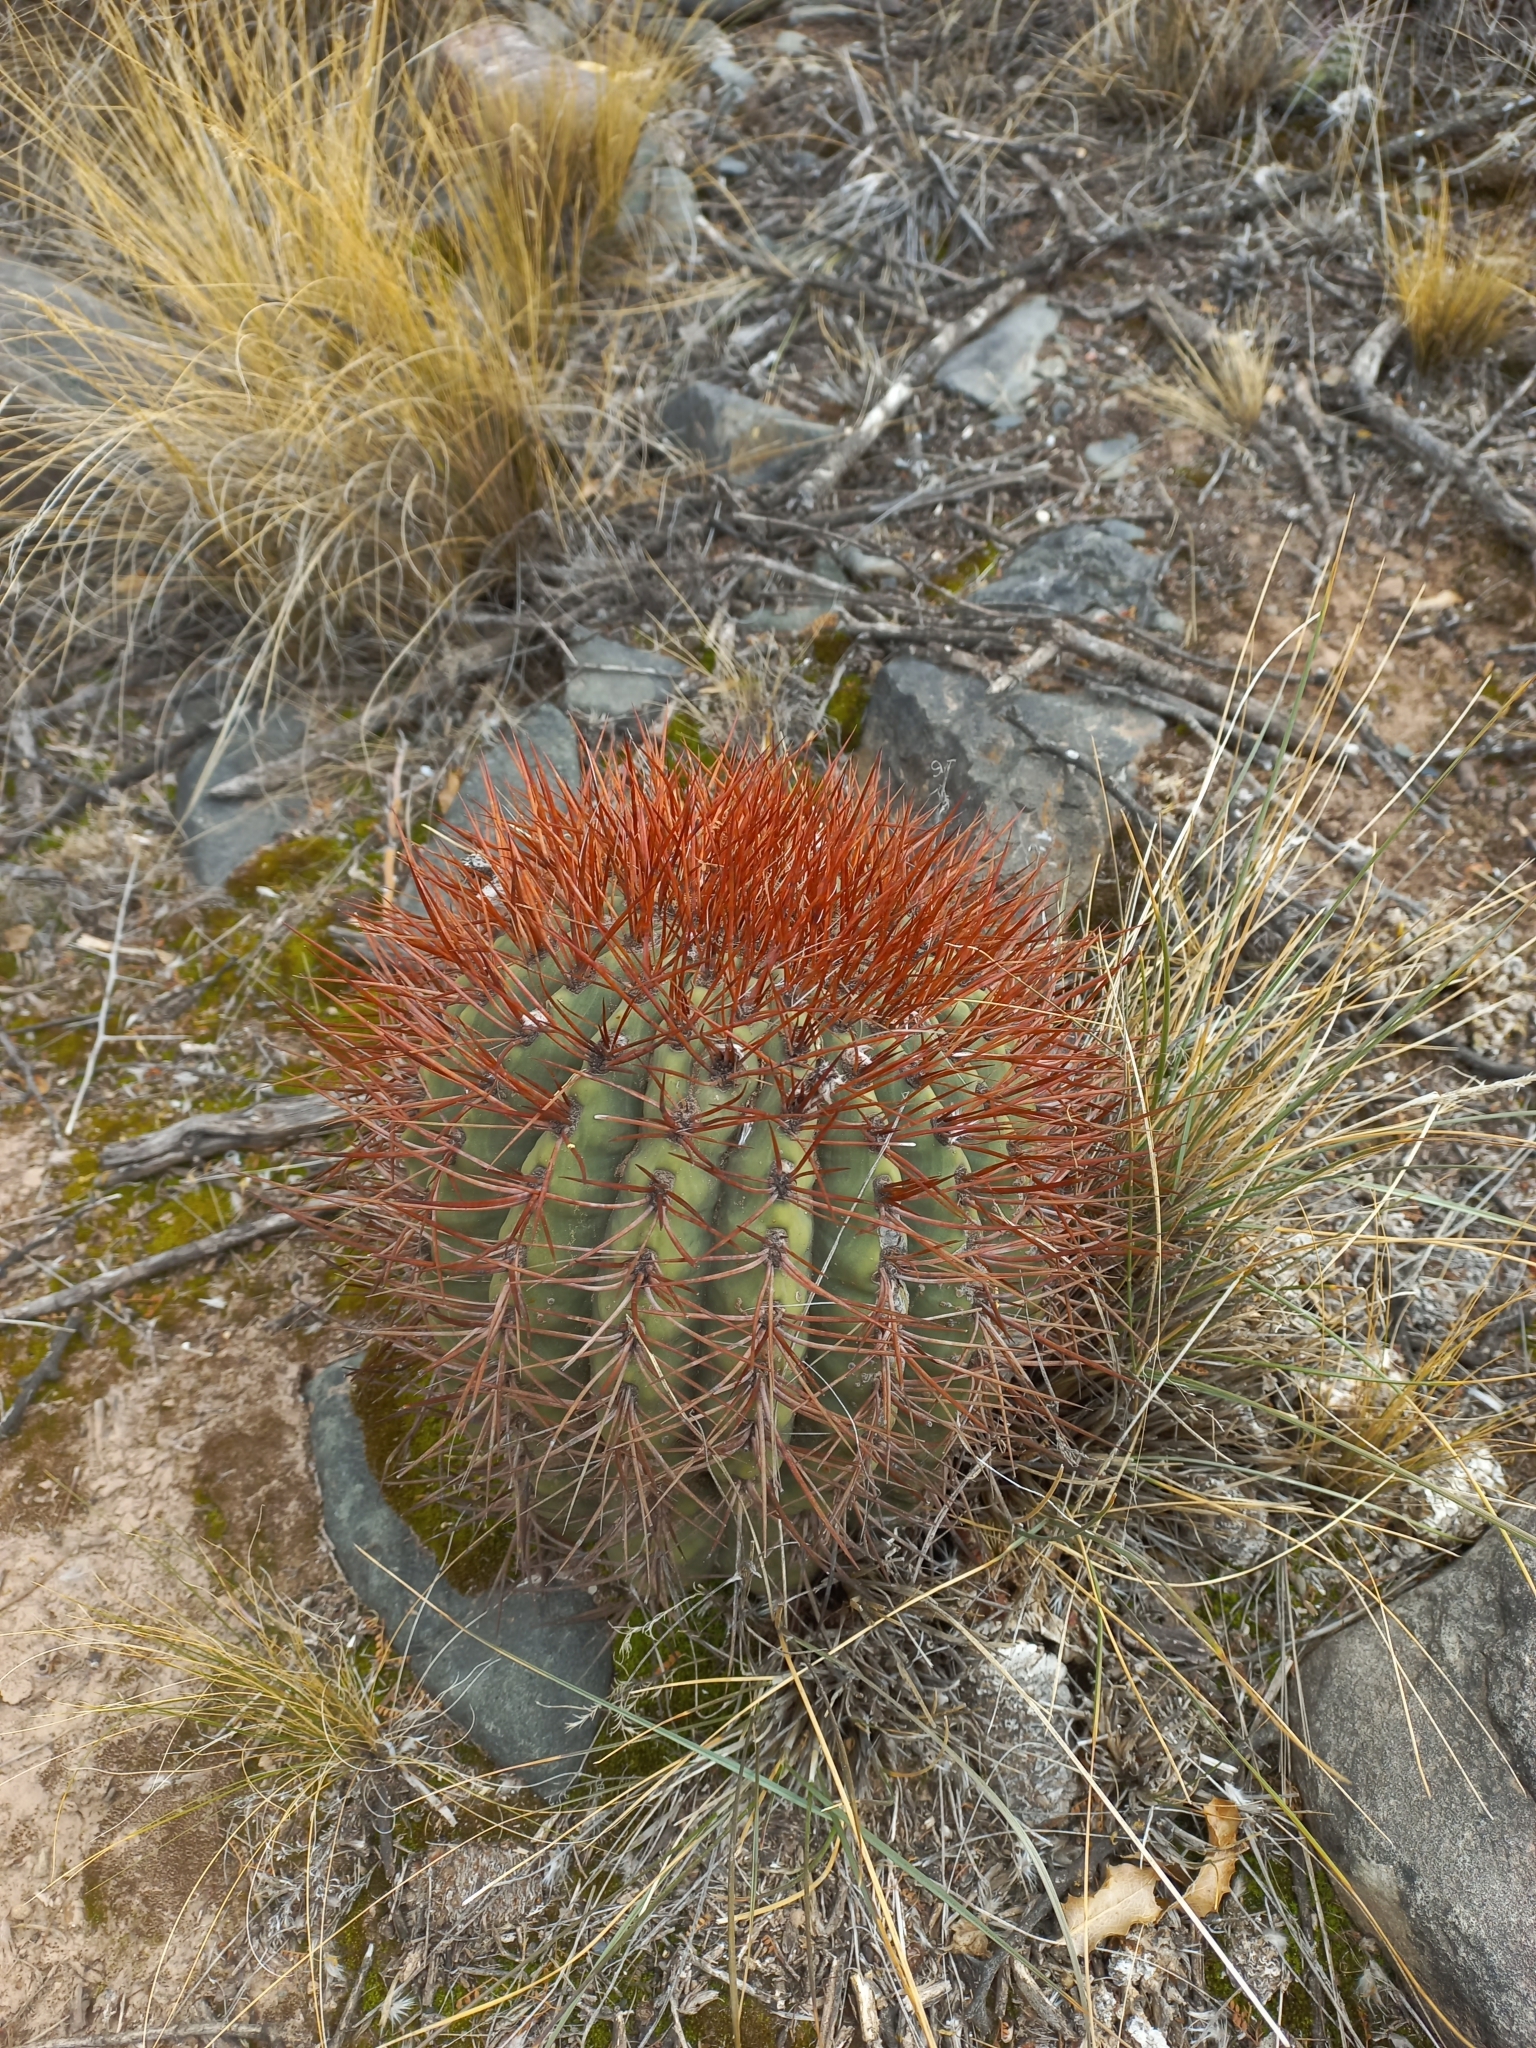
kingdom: Plantae
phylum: Tracheophyta
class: Magnoliopsida
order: Caryophyllales
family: Cactaceae
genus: Denmoza
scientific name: Denmoza rhodacantha
